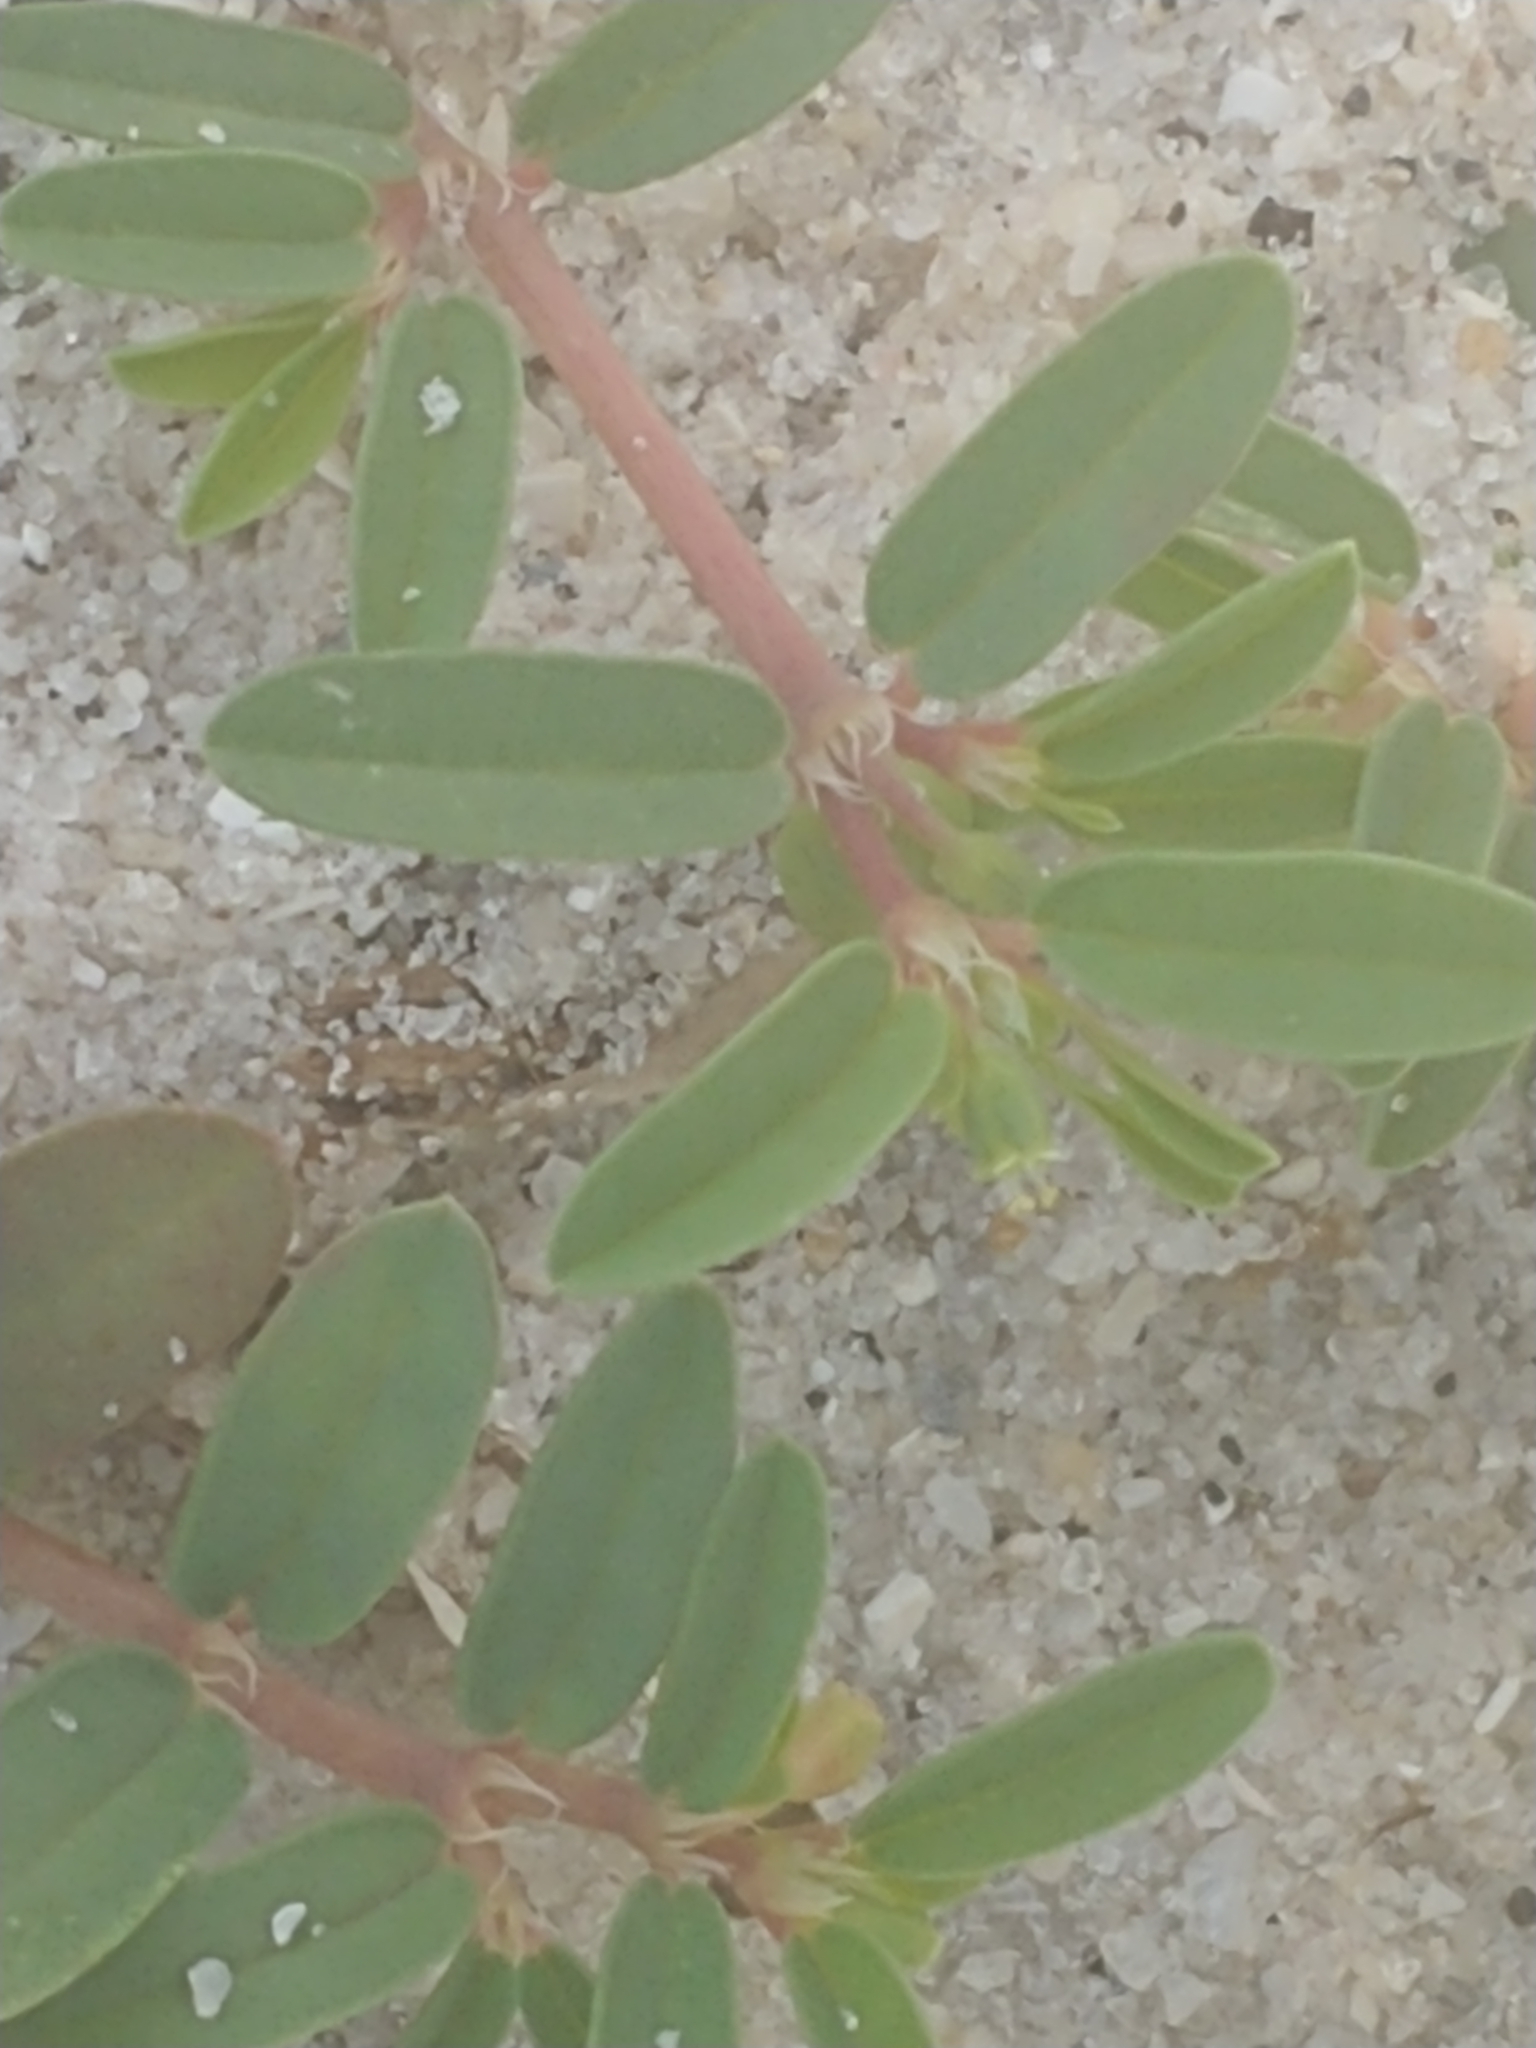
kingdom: Plantae
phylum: Tracheophyta
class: Magnoliopsida
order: Malpighiales
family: Euphorbiaceae
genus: Euphorbia
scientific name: Euphorbia bombensis
